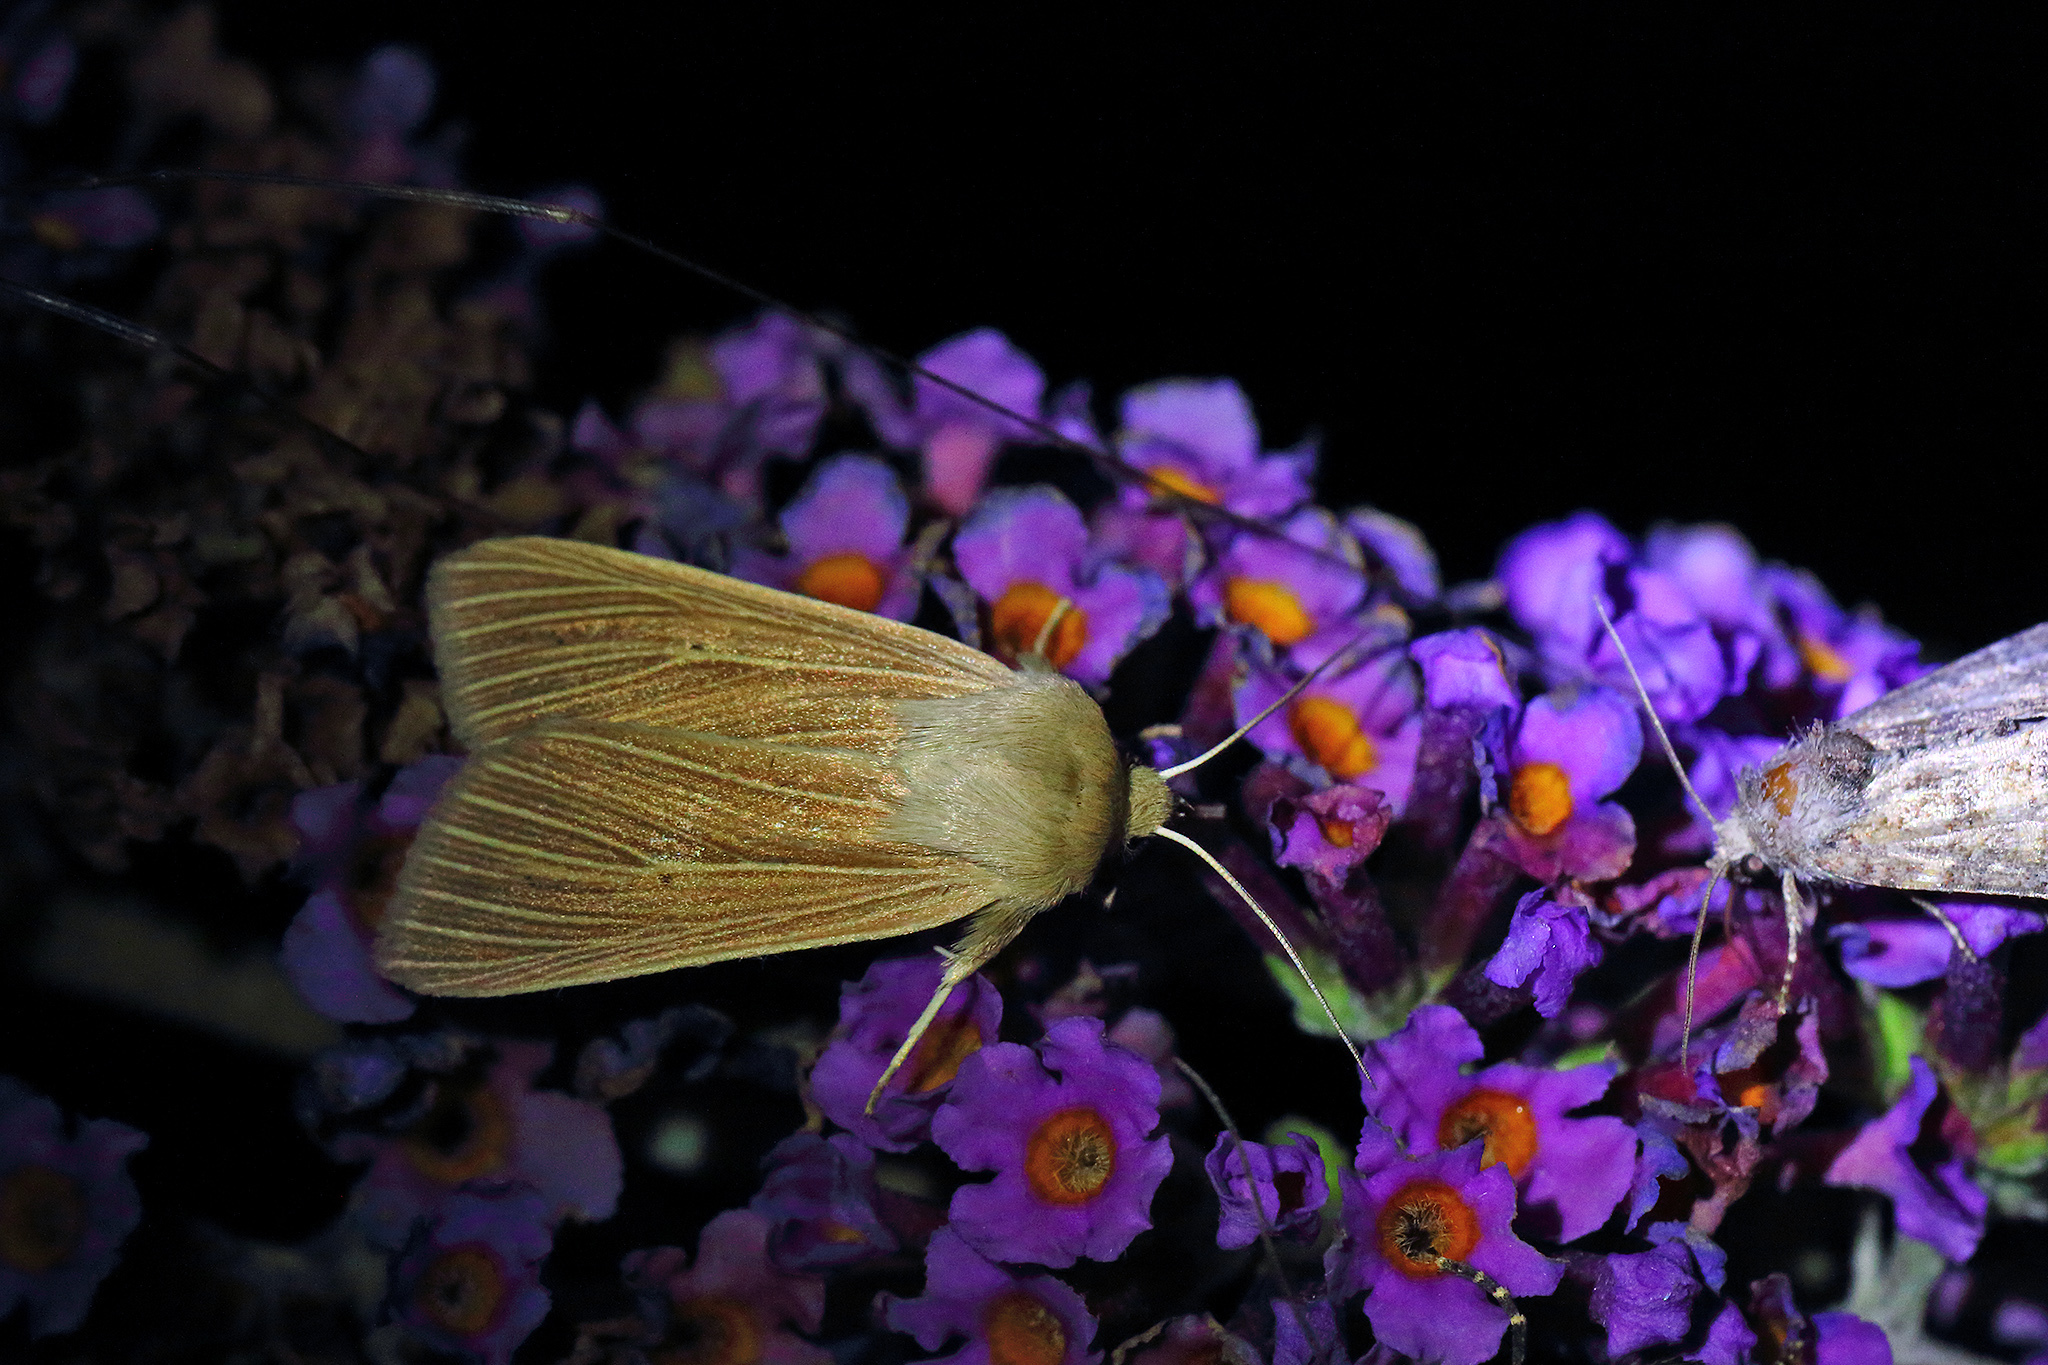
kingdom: Animalia
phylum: Arthropoda
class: Insecta
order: Lepidoptera
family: Noctuidae
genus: Mythimna
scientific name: Mythimna pallens
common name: Common wainscot
